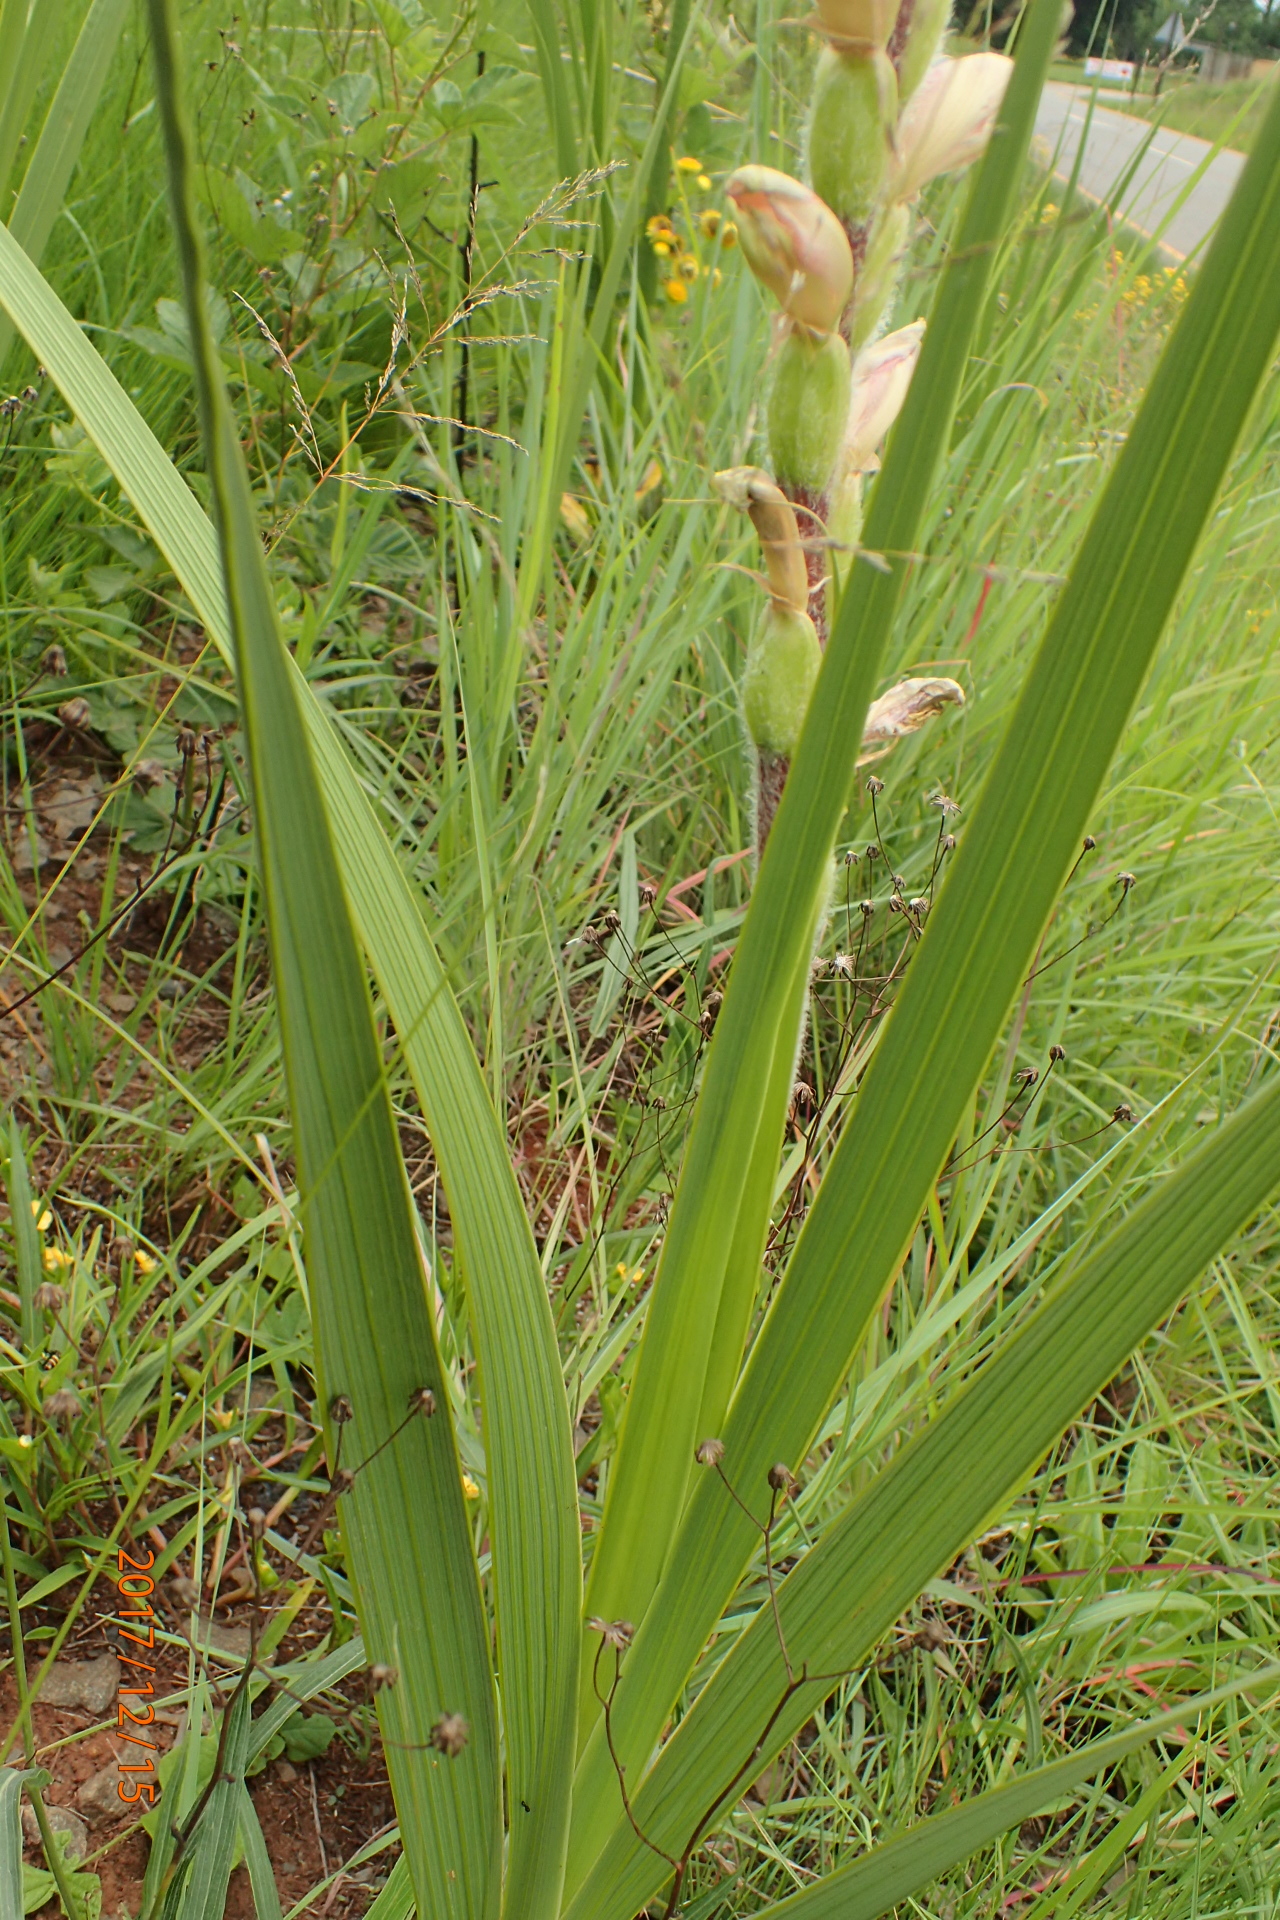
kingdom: Plantae
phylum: Tracheophyta
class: Liliopsida
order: Asparagales
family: Iridaceae
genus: Gladiolus
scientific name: Gladiolus sericeovillosus
